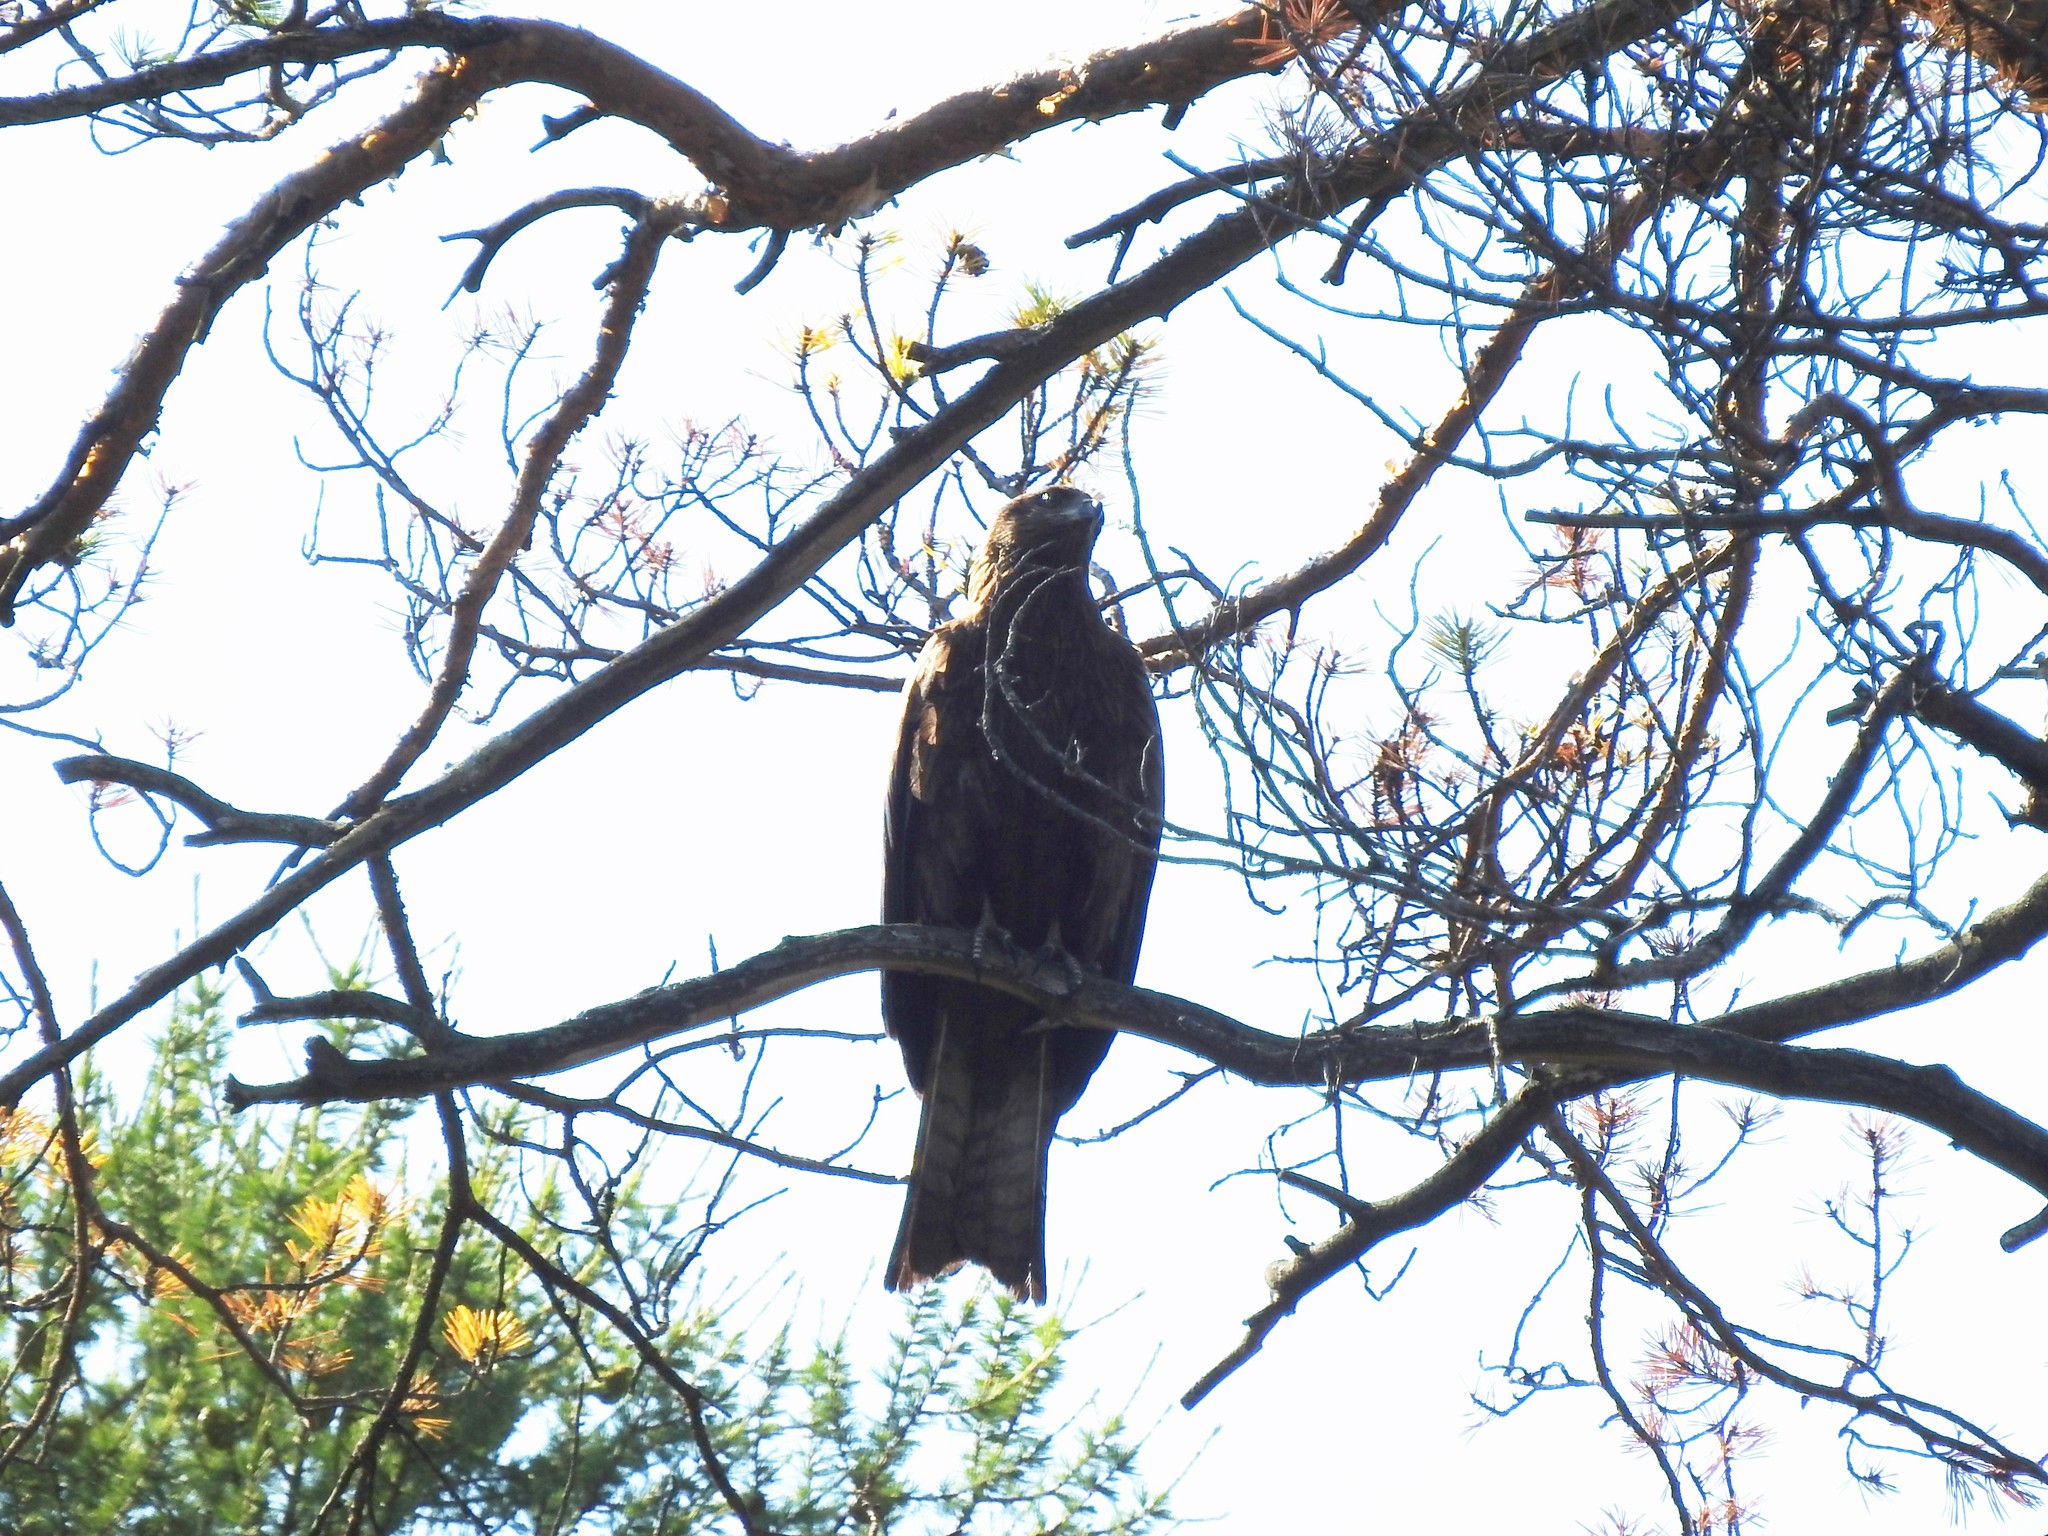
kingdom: Animalia
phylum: Chordata
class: Aves
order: Accipitriformes
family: Accipitridae
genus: Milvus
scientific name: Milvus migrans
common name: Black kite
